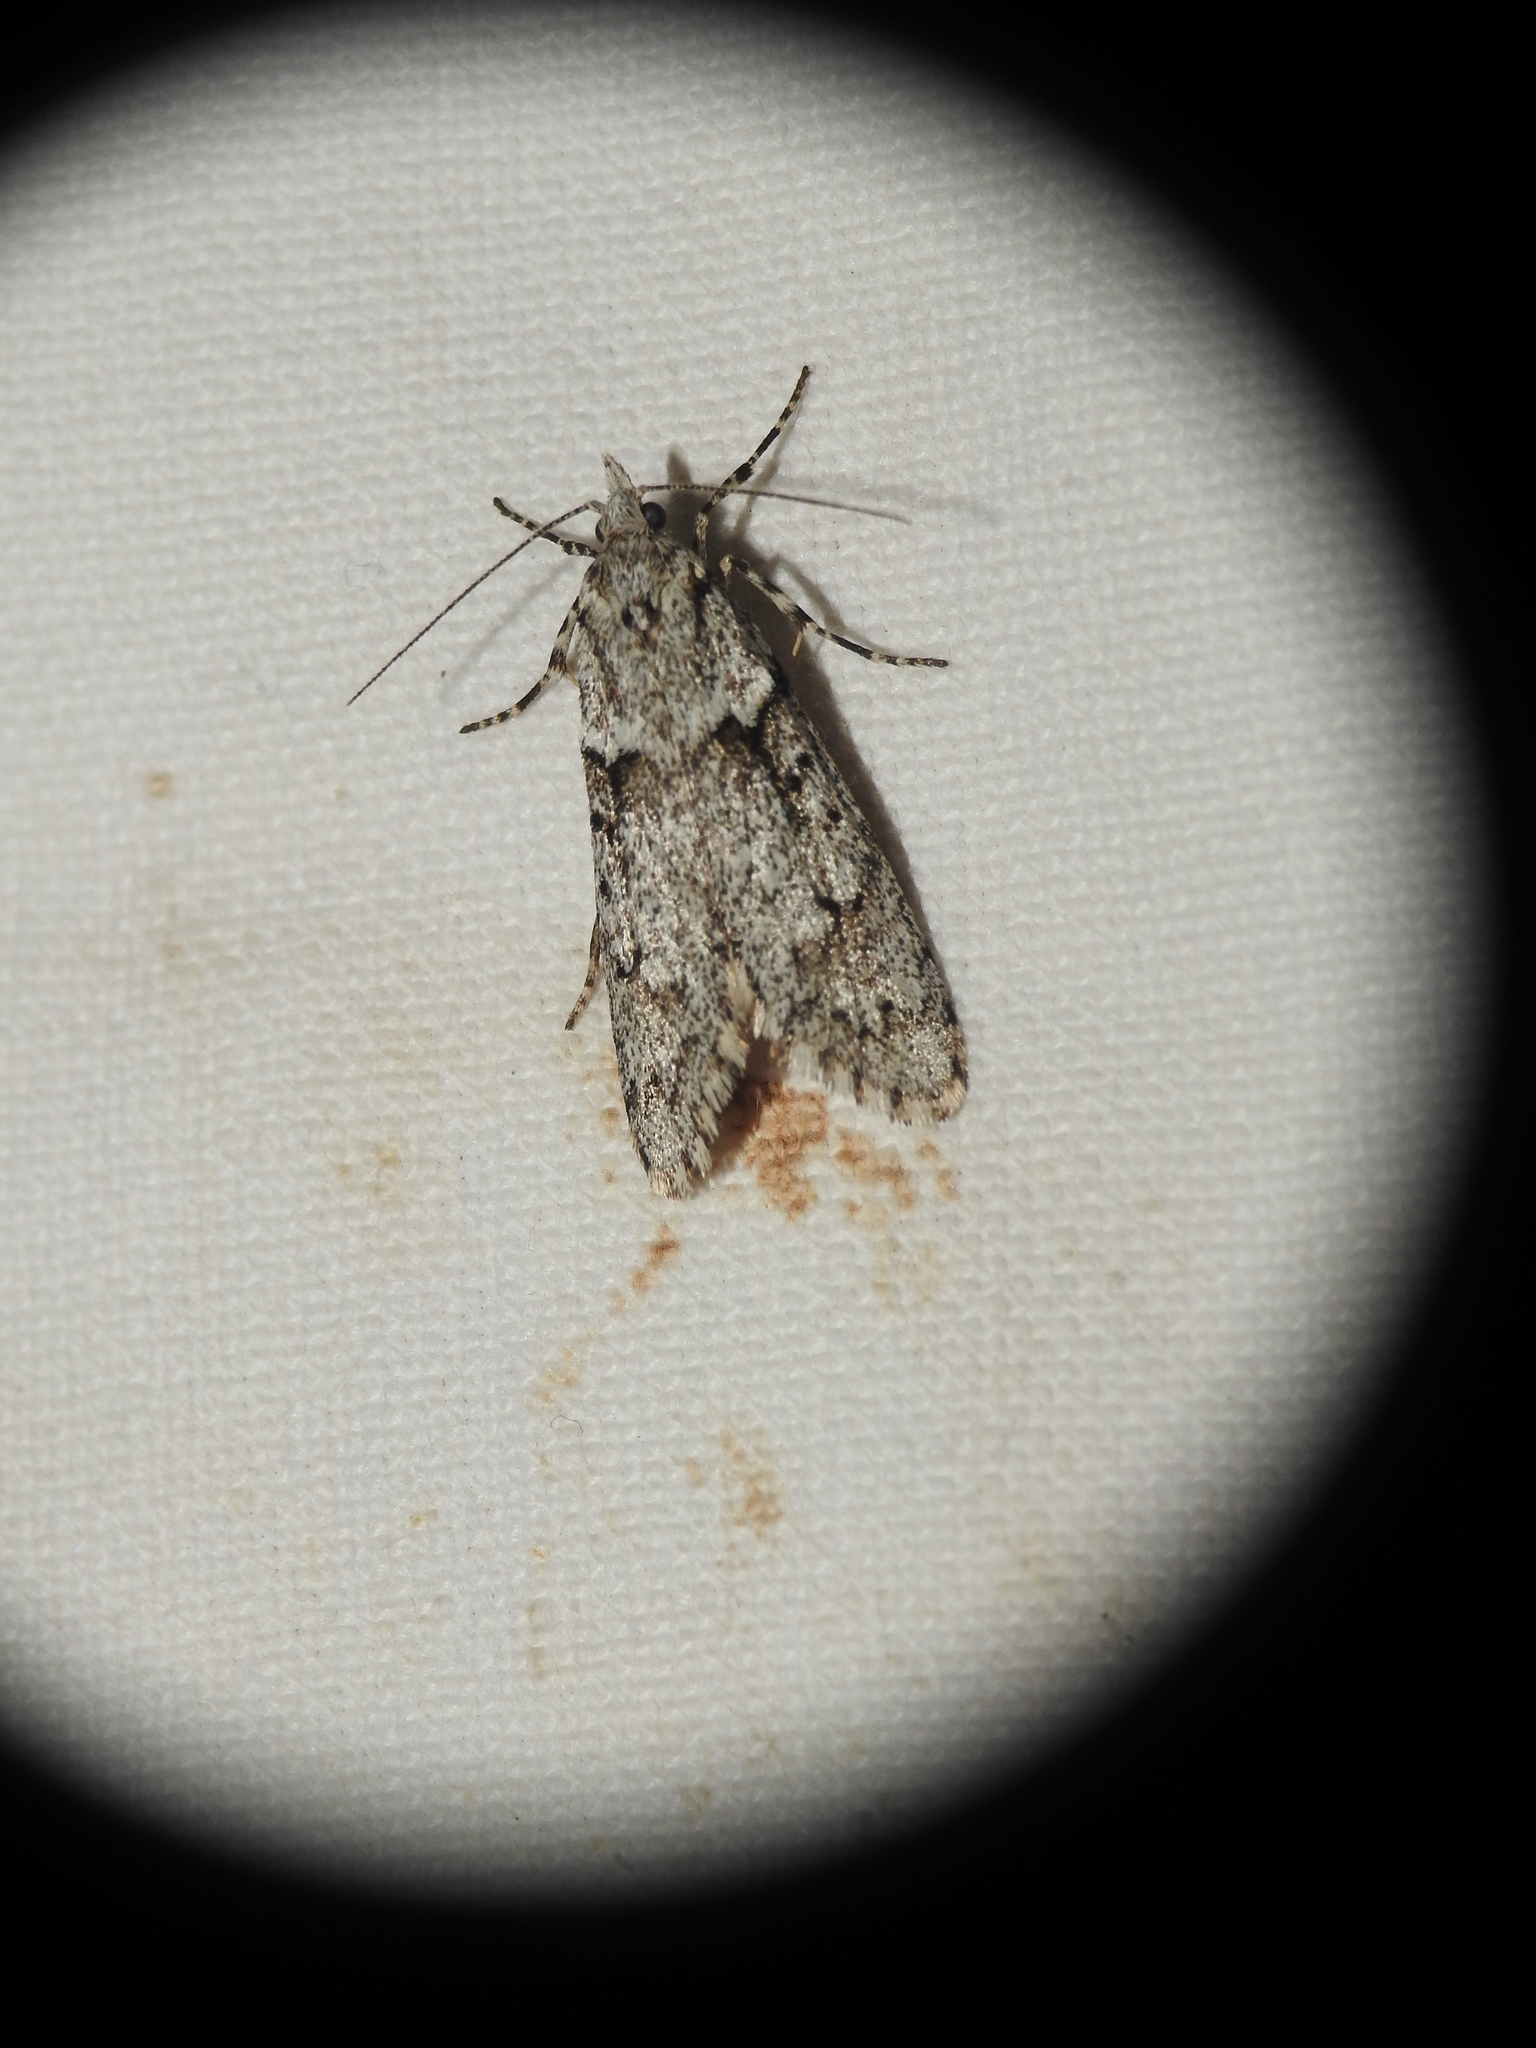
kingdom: Animalia
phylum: Arthropoda
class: Insecta
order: Lepidoptera
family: Lypusidae
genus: Diurnea
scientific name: Diurnea fagella
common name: March tubic
